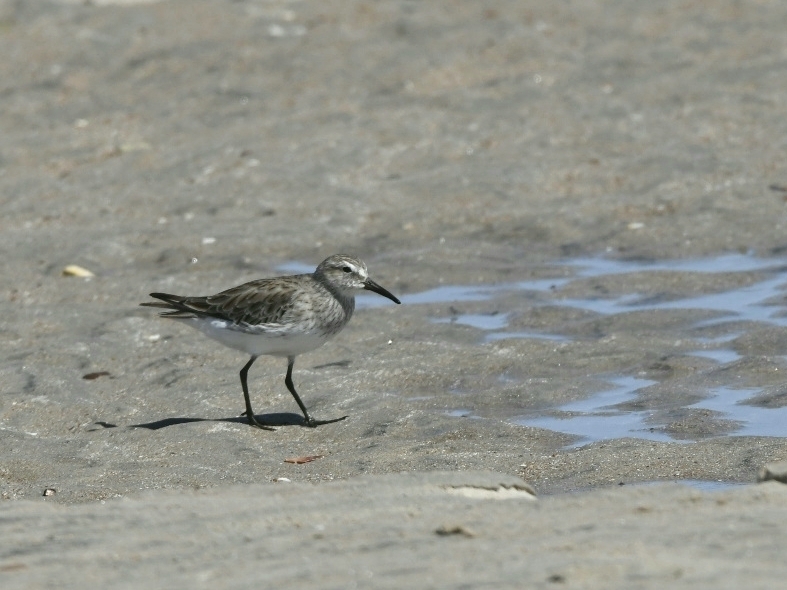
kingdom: Animalia
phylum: Chordata
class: Aves
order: Charadriiformes
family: Scolopacidae
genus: Calidris
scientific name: Calidris fuscicollis
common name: White-rumped sandpiper
